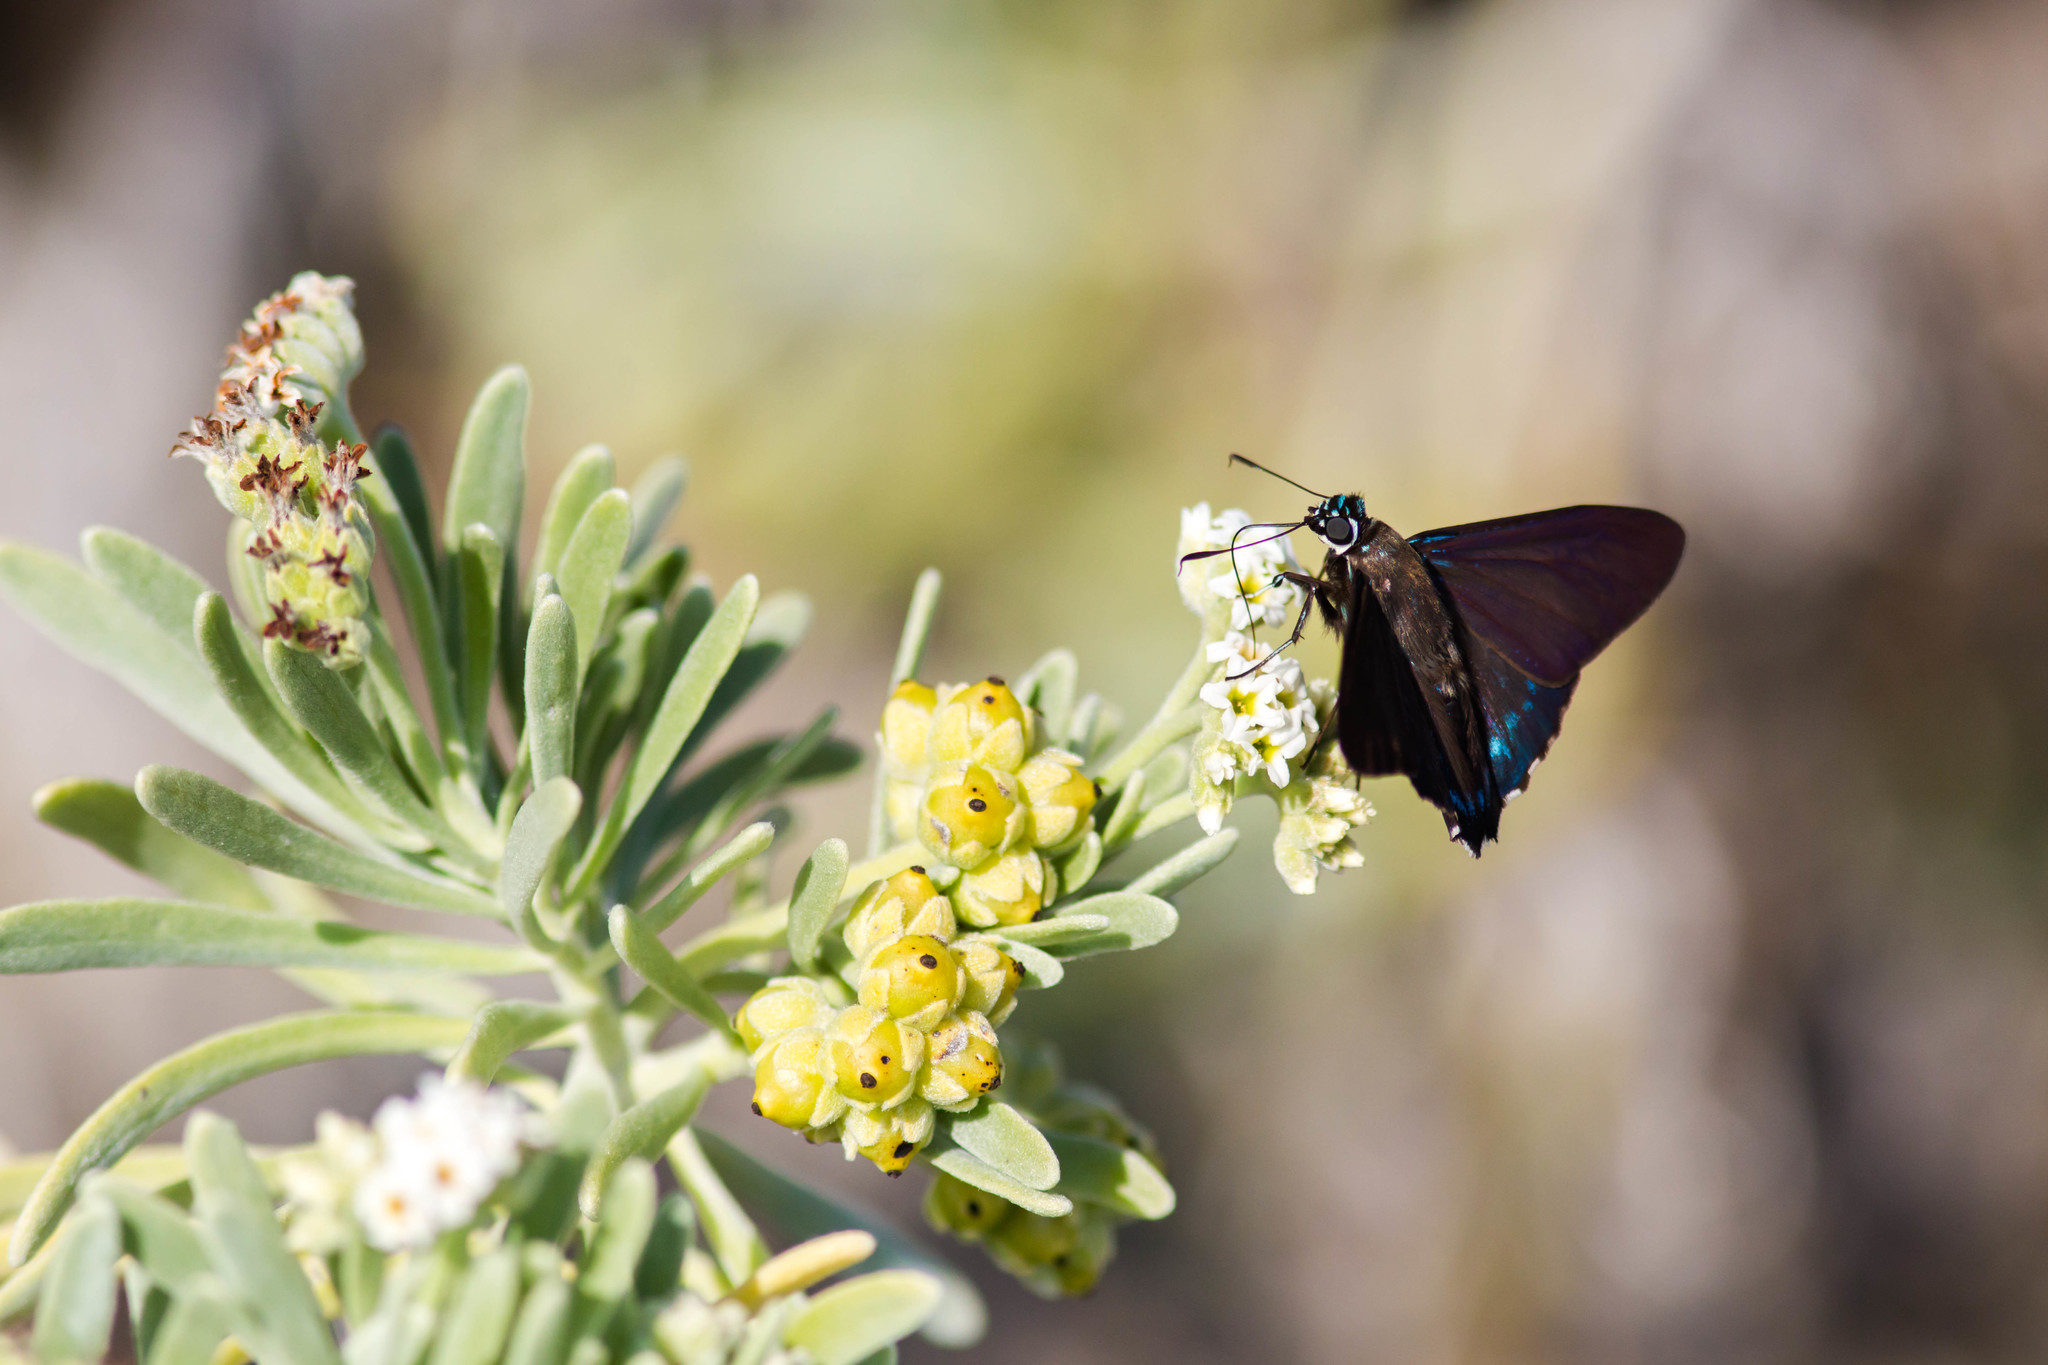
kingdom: Animalia
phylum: Arthropoda
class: Insecta
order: Lepidoptera
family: Hesperiidae
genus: Phocides
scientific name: Phocides pigmalion
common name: Mangrove skipper
